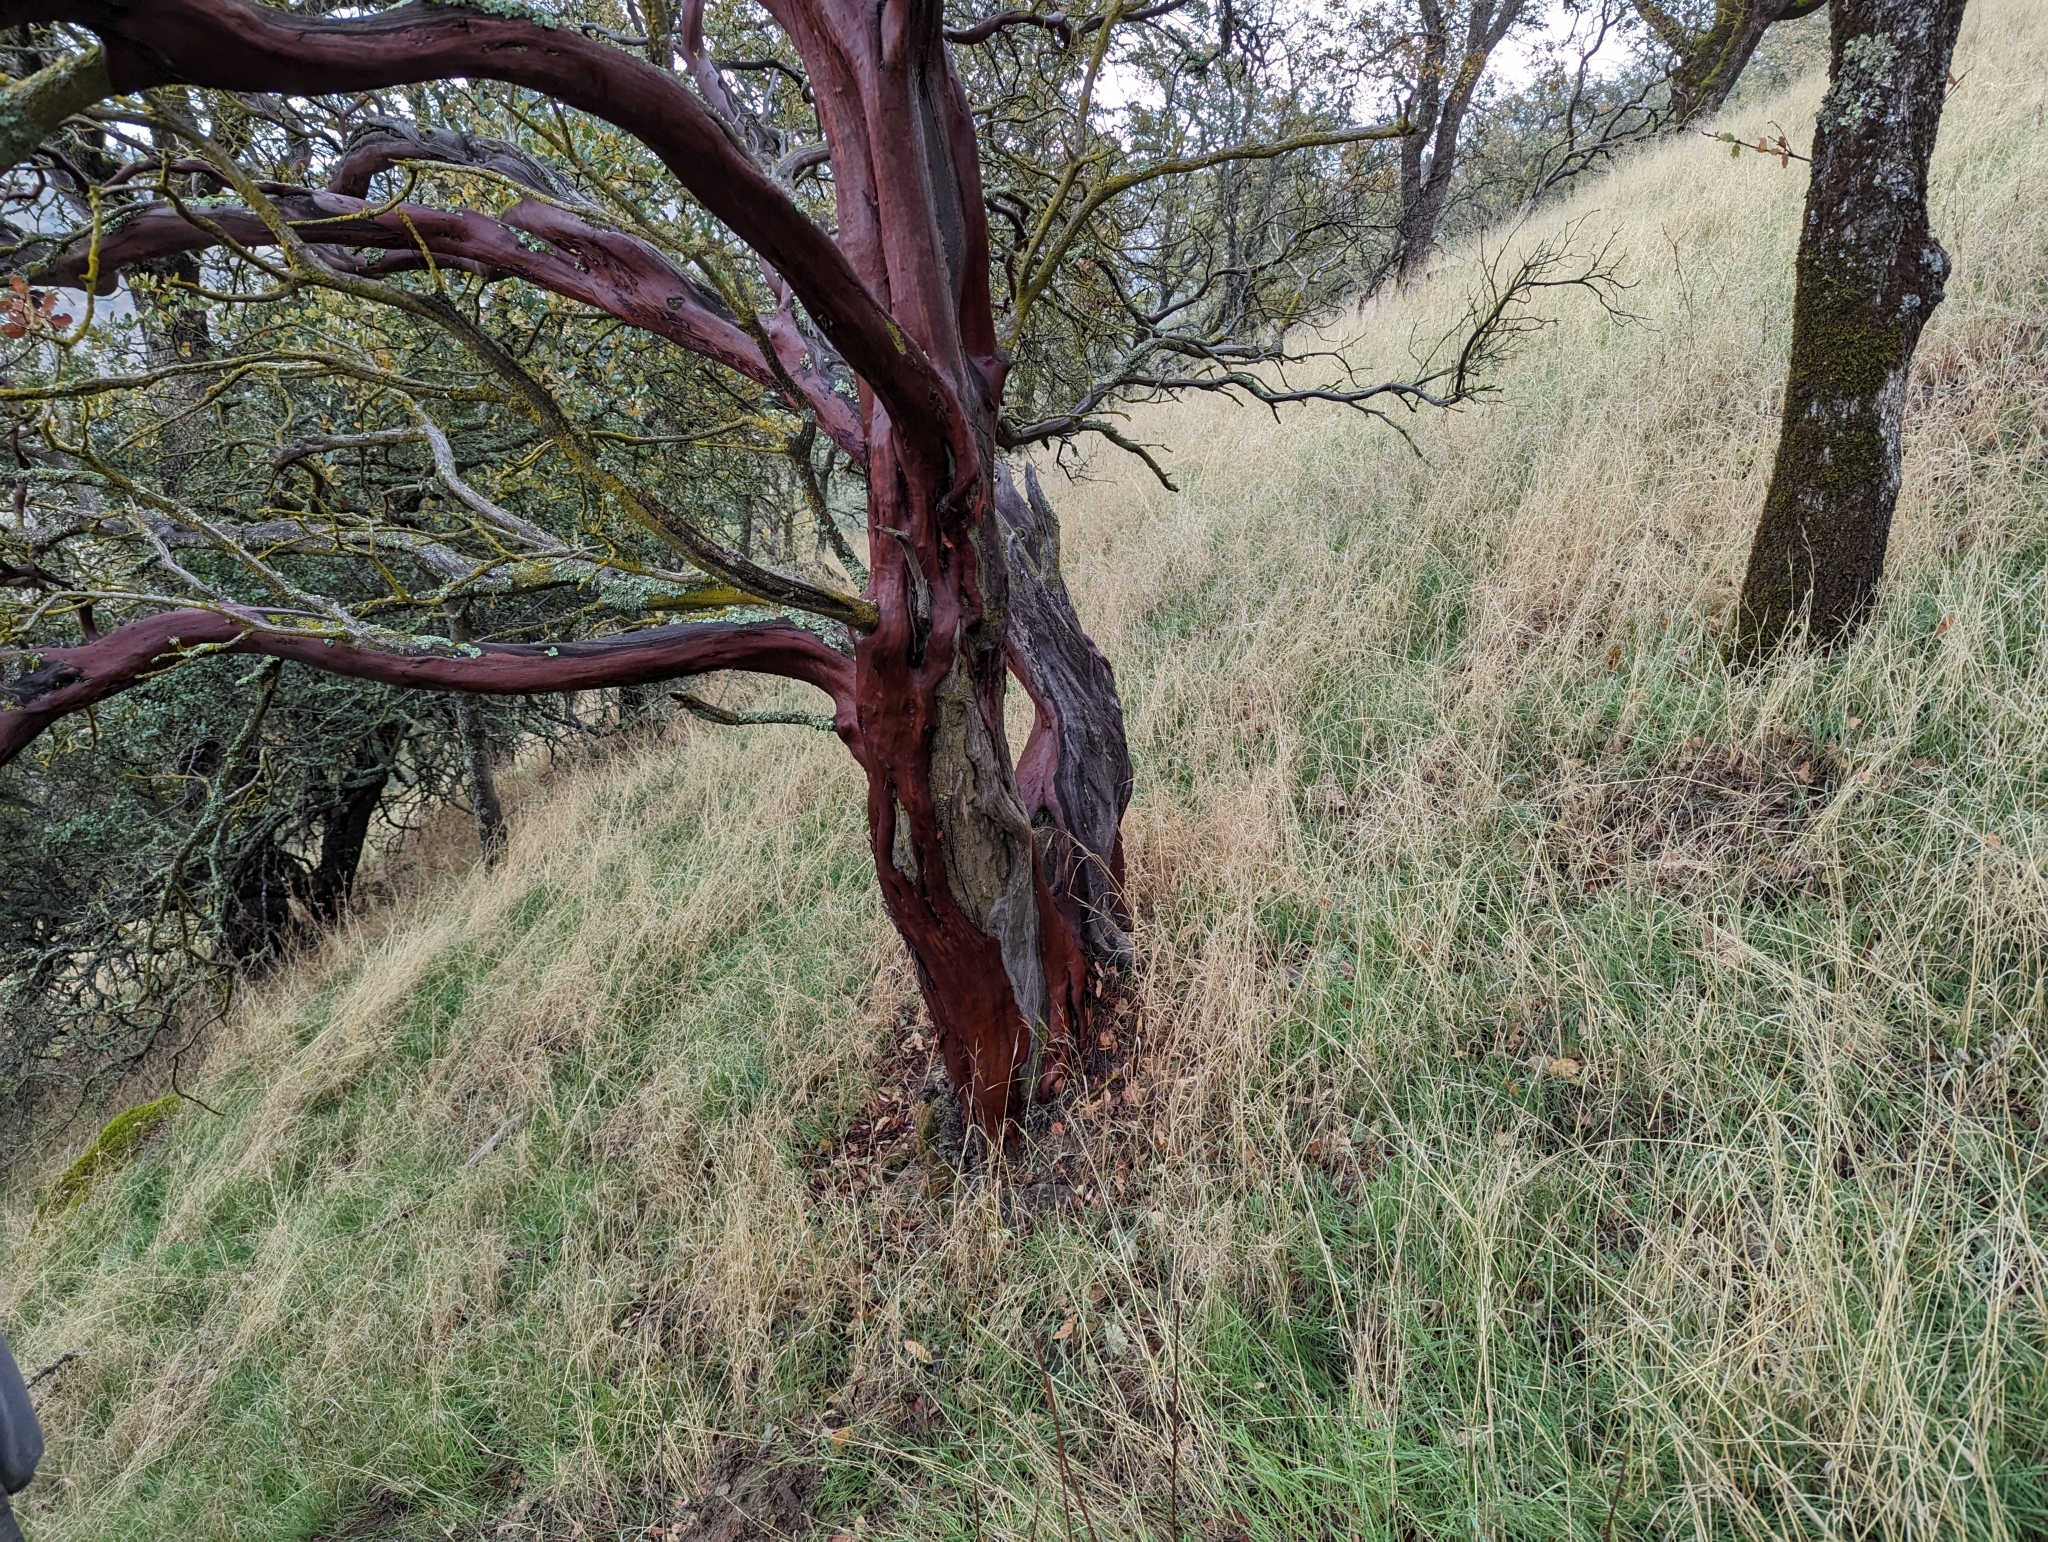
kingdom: Plantae
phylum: Tracheophyta
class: Magnoliopsida
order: Ericales
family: Ericaceae
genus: Arctostaphylos
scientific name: Arctostaphylos manzanita
